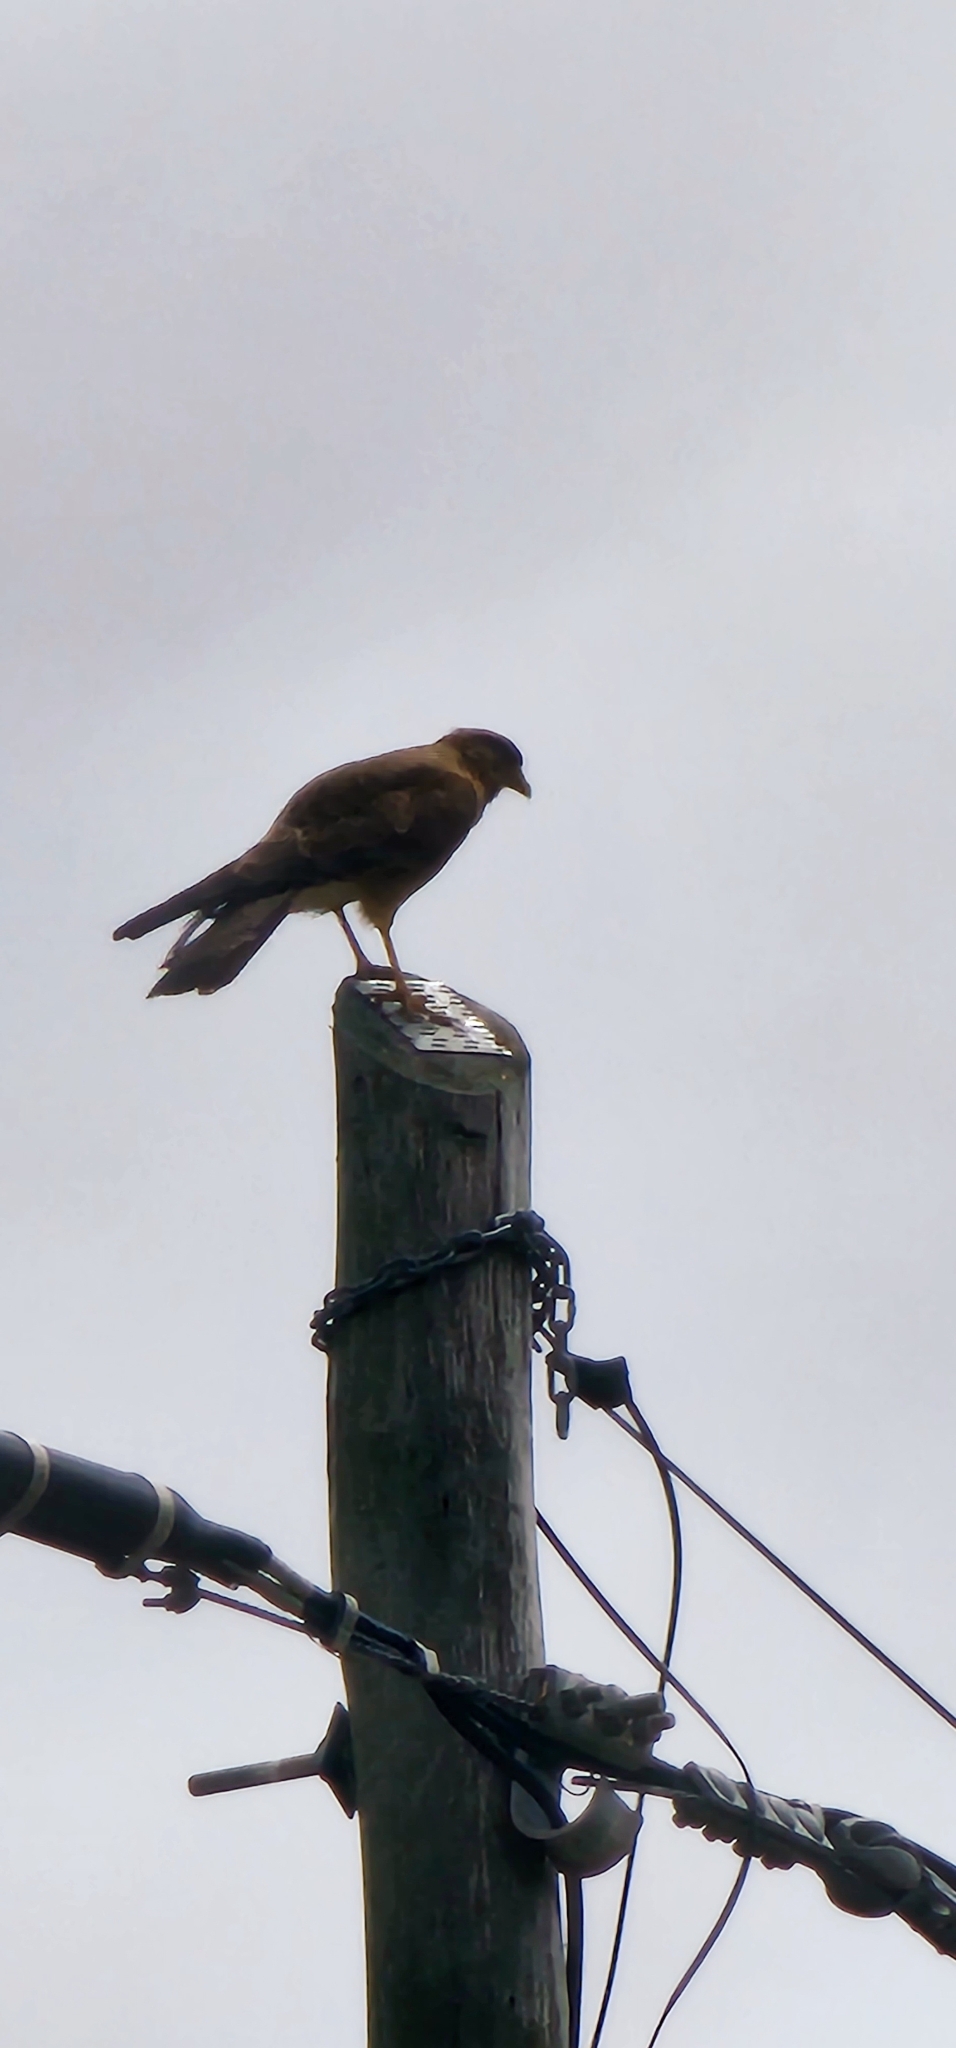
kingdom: Animalia
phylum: Chordata
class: Aves
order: Falconiformes
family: Falconidae
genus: Daptrius
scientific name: Daptrius
